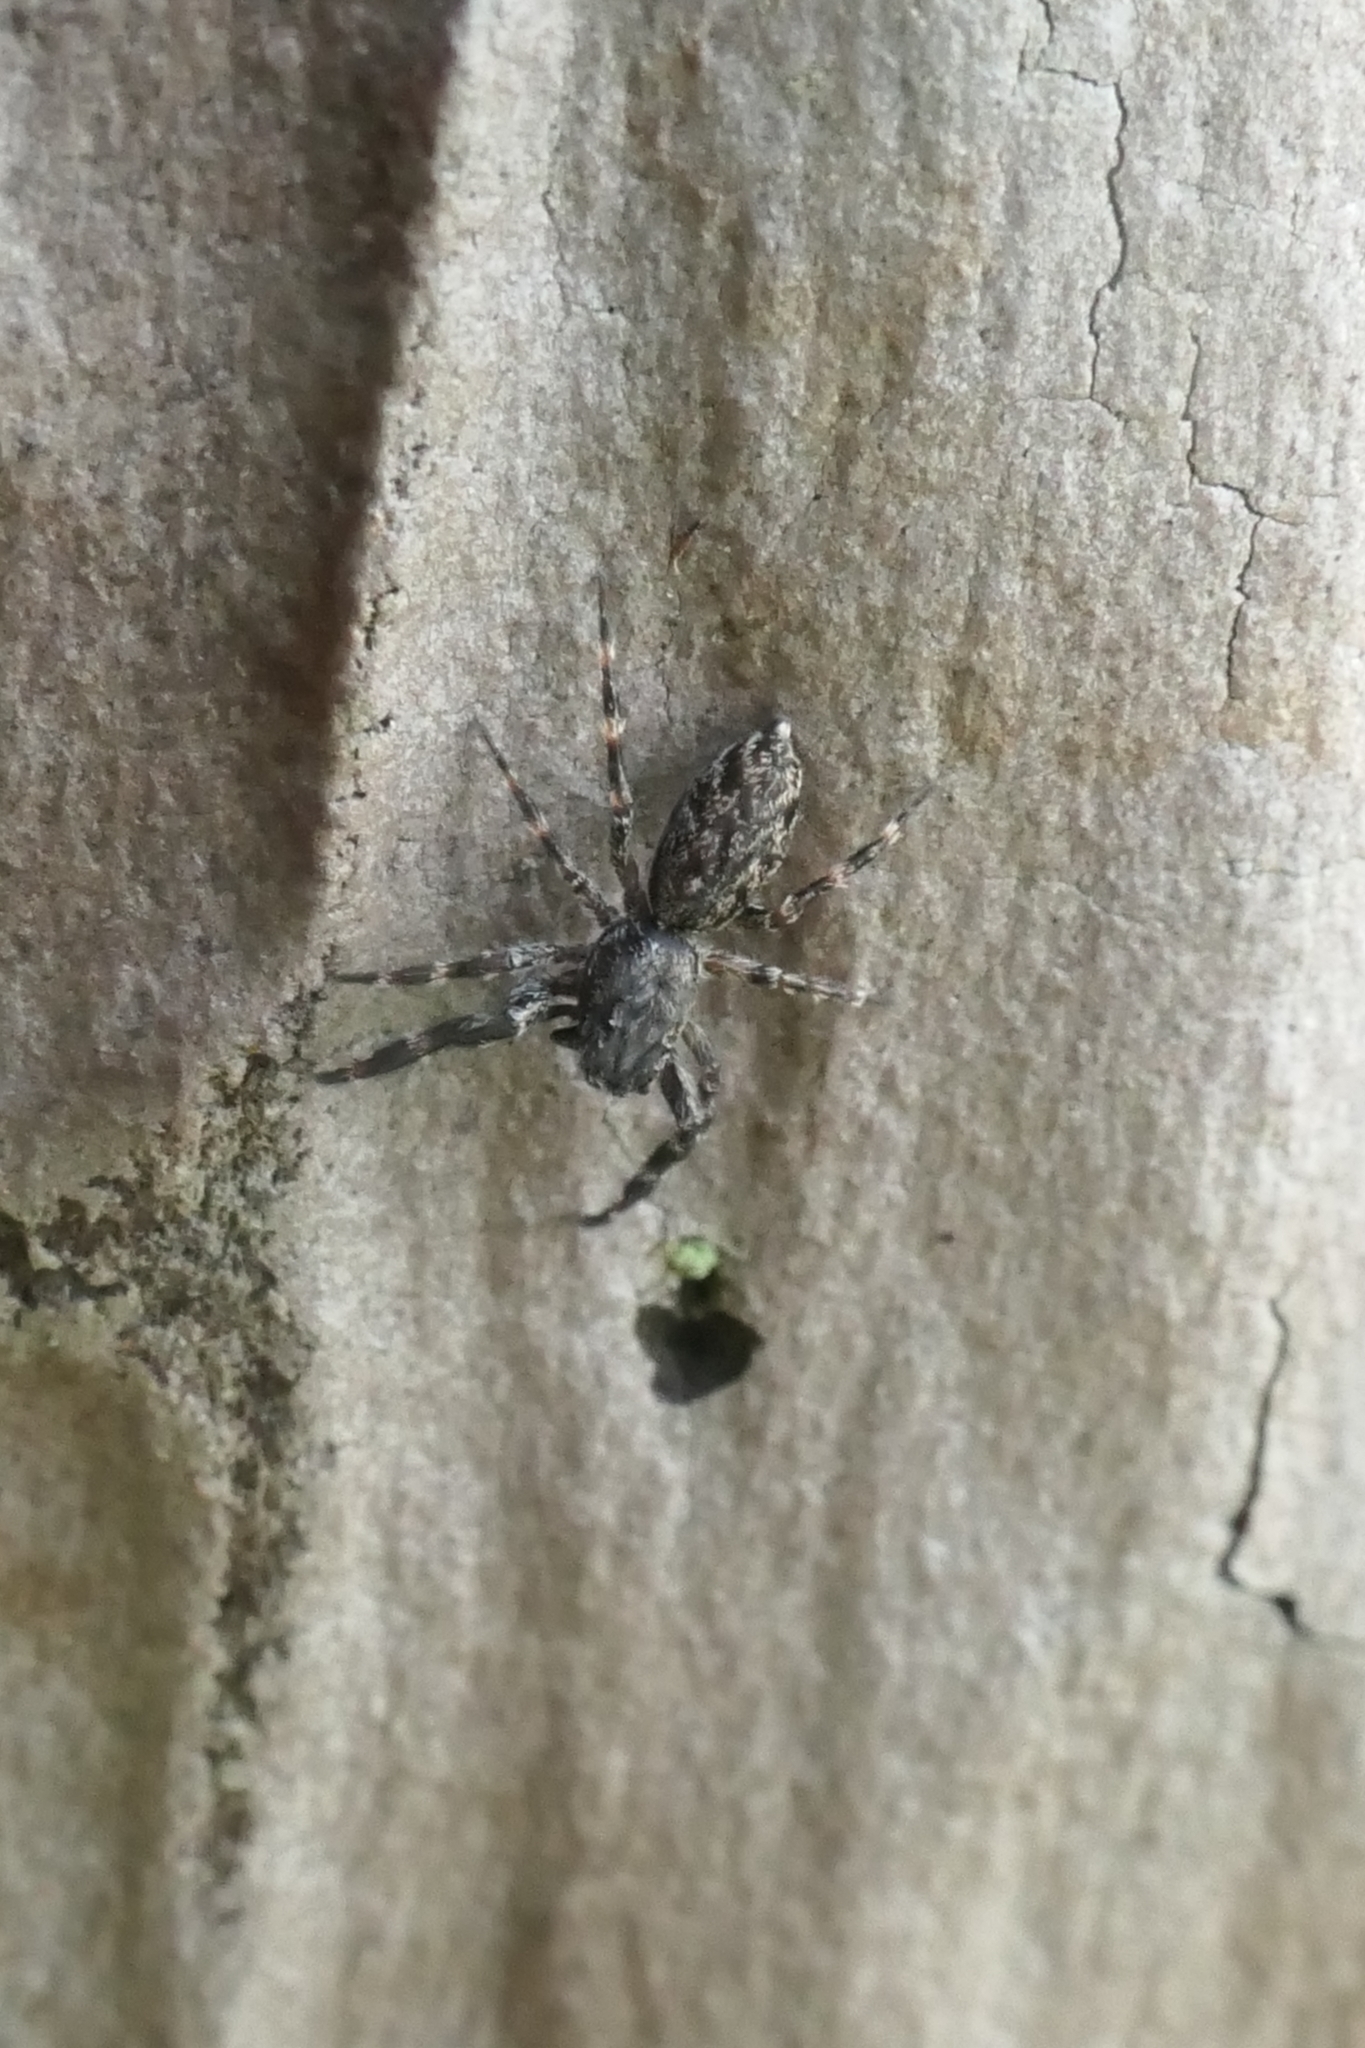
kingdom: Animalia
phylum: Arthropoda
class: Arachnida
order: Araneae
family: Salticidae
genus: Adoxotoma
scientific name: Adoxotoma forsteri
